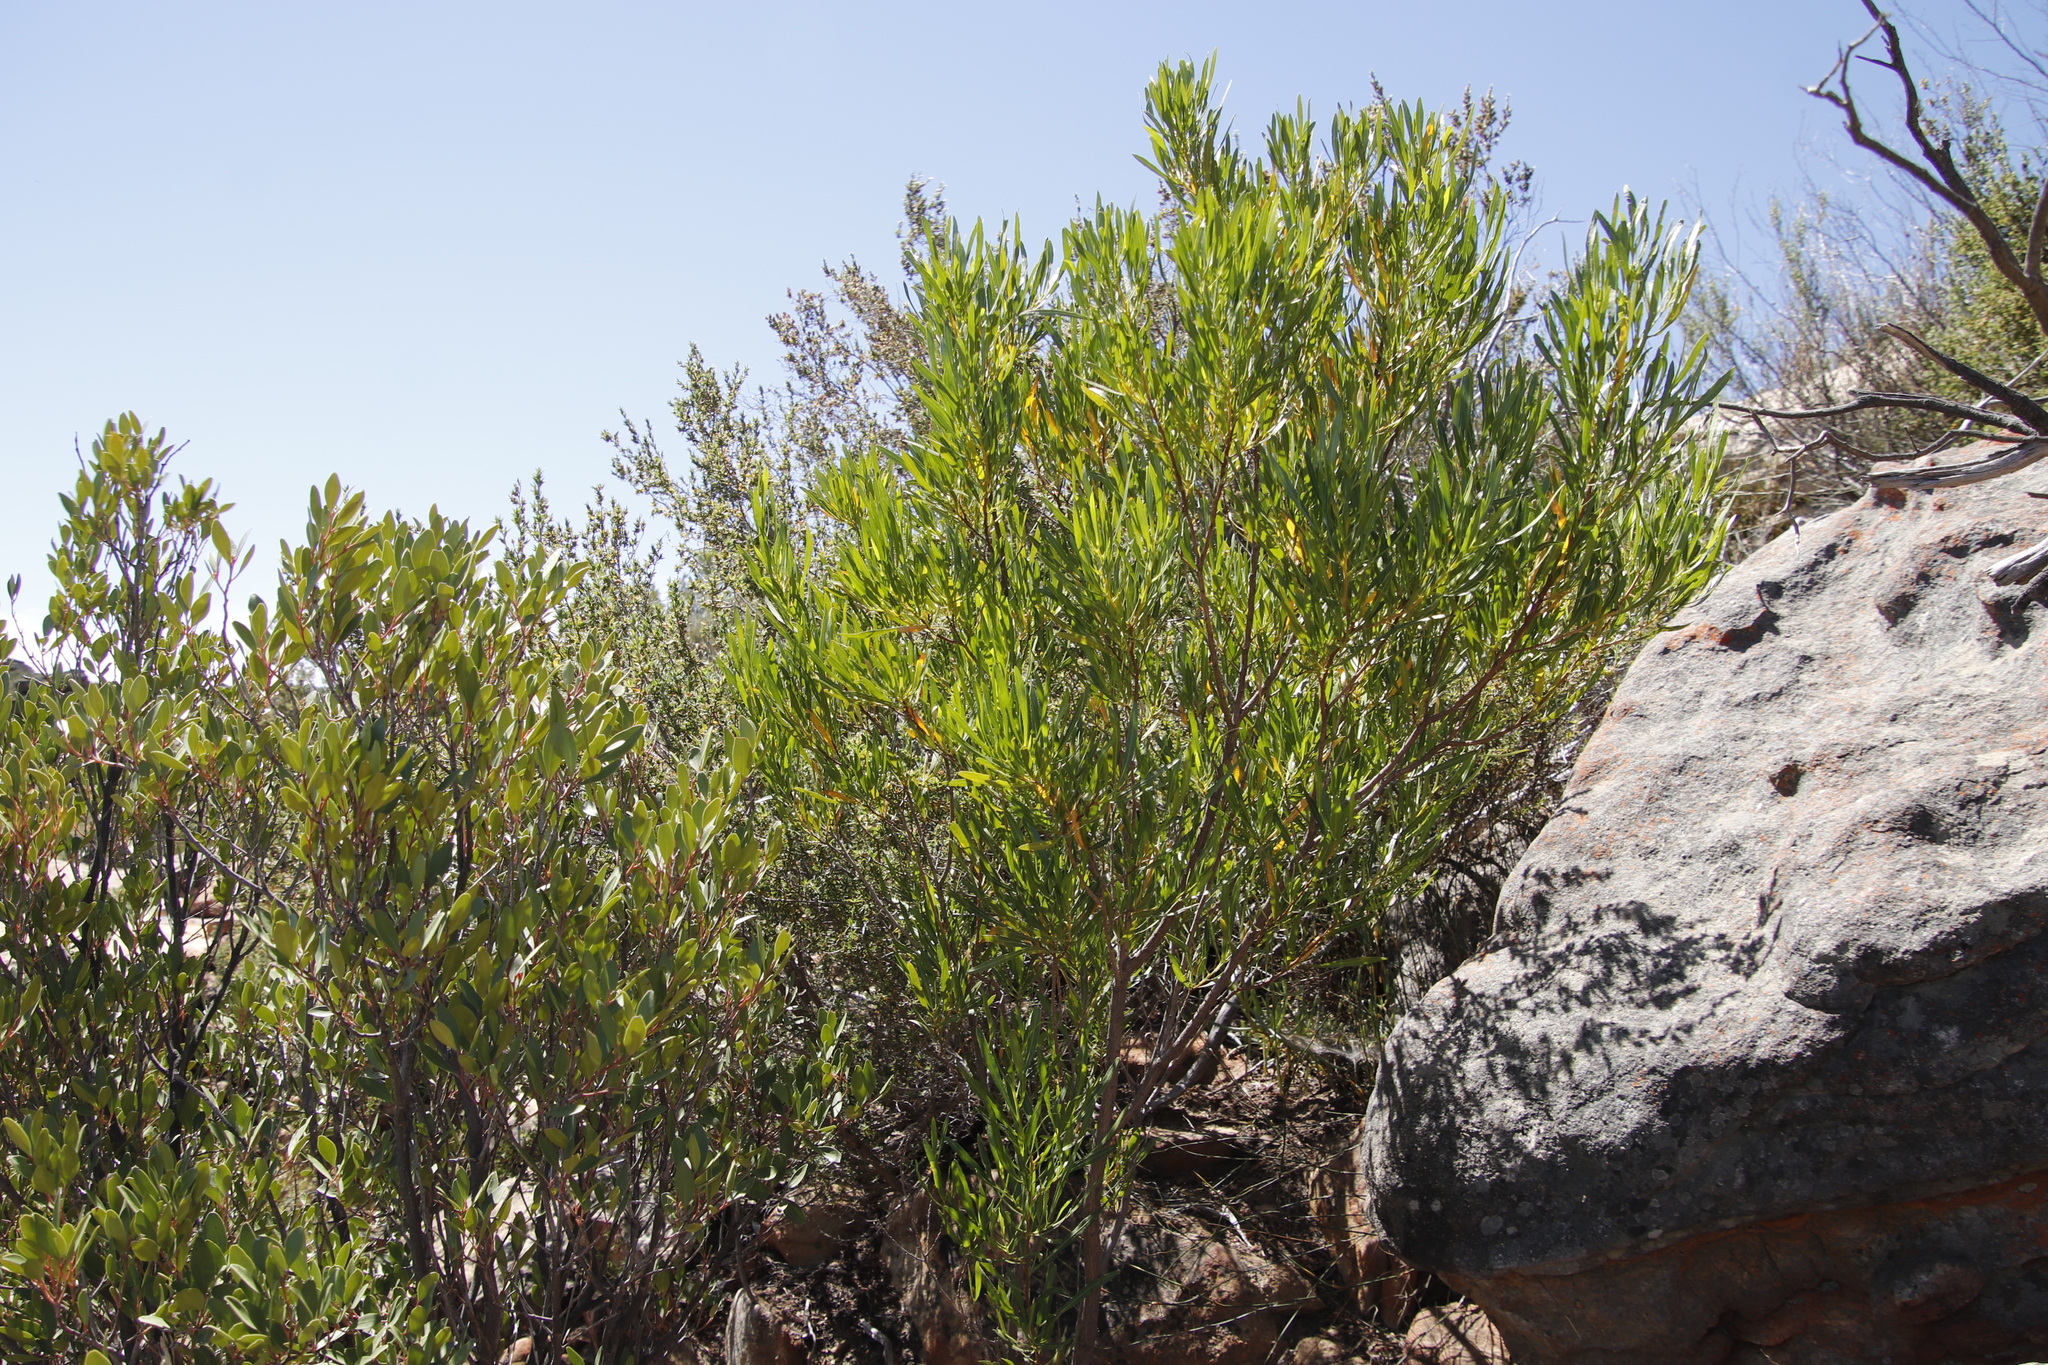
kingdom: Plantae
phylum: Tracheophyta
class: Magnoliopsida
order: Sapindales
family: Sapindaceae
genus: Dodonaea
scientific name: Dodonaea viscosa
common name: Hopbush
